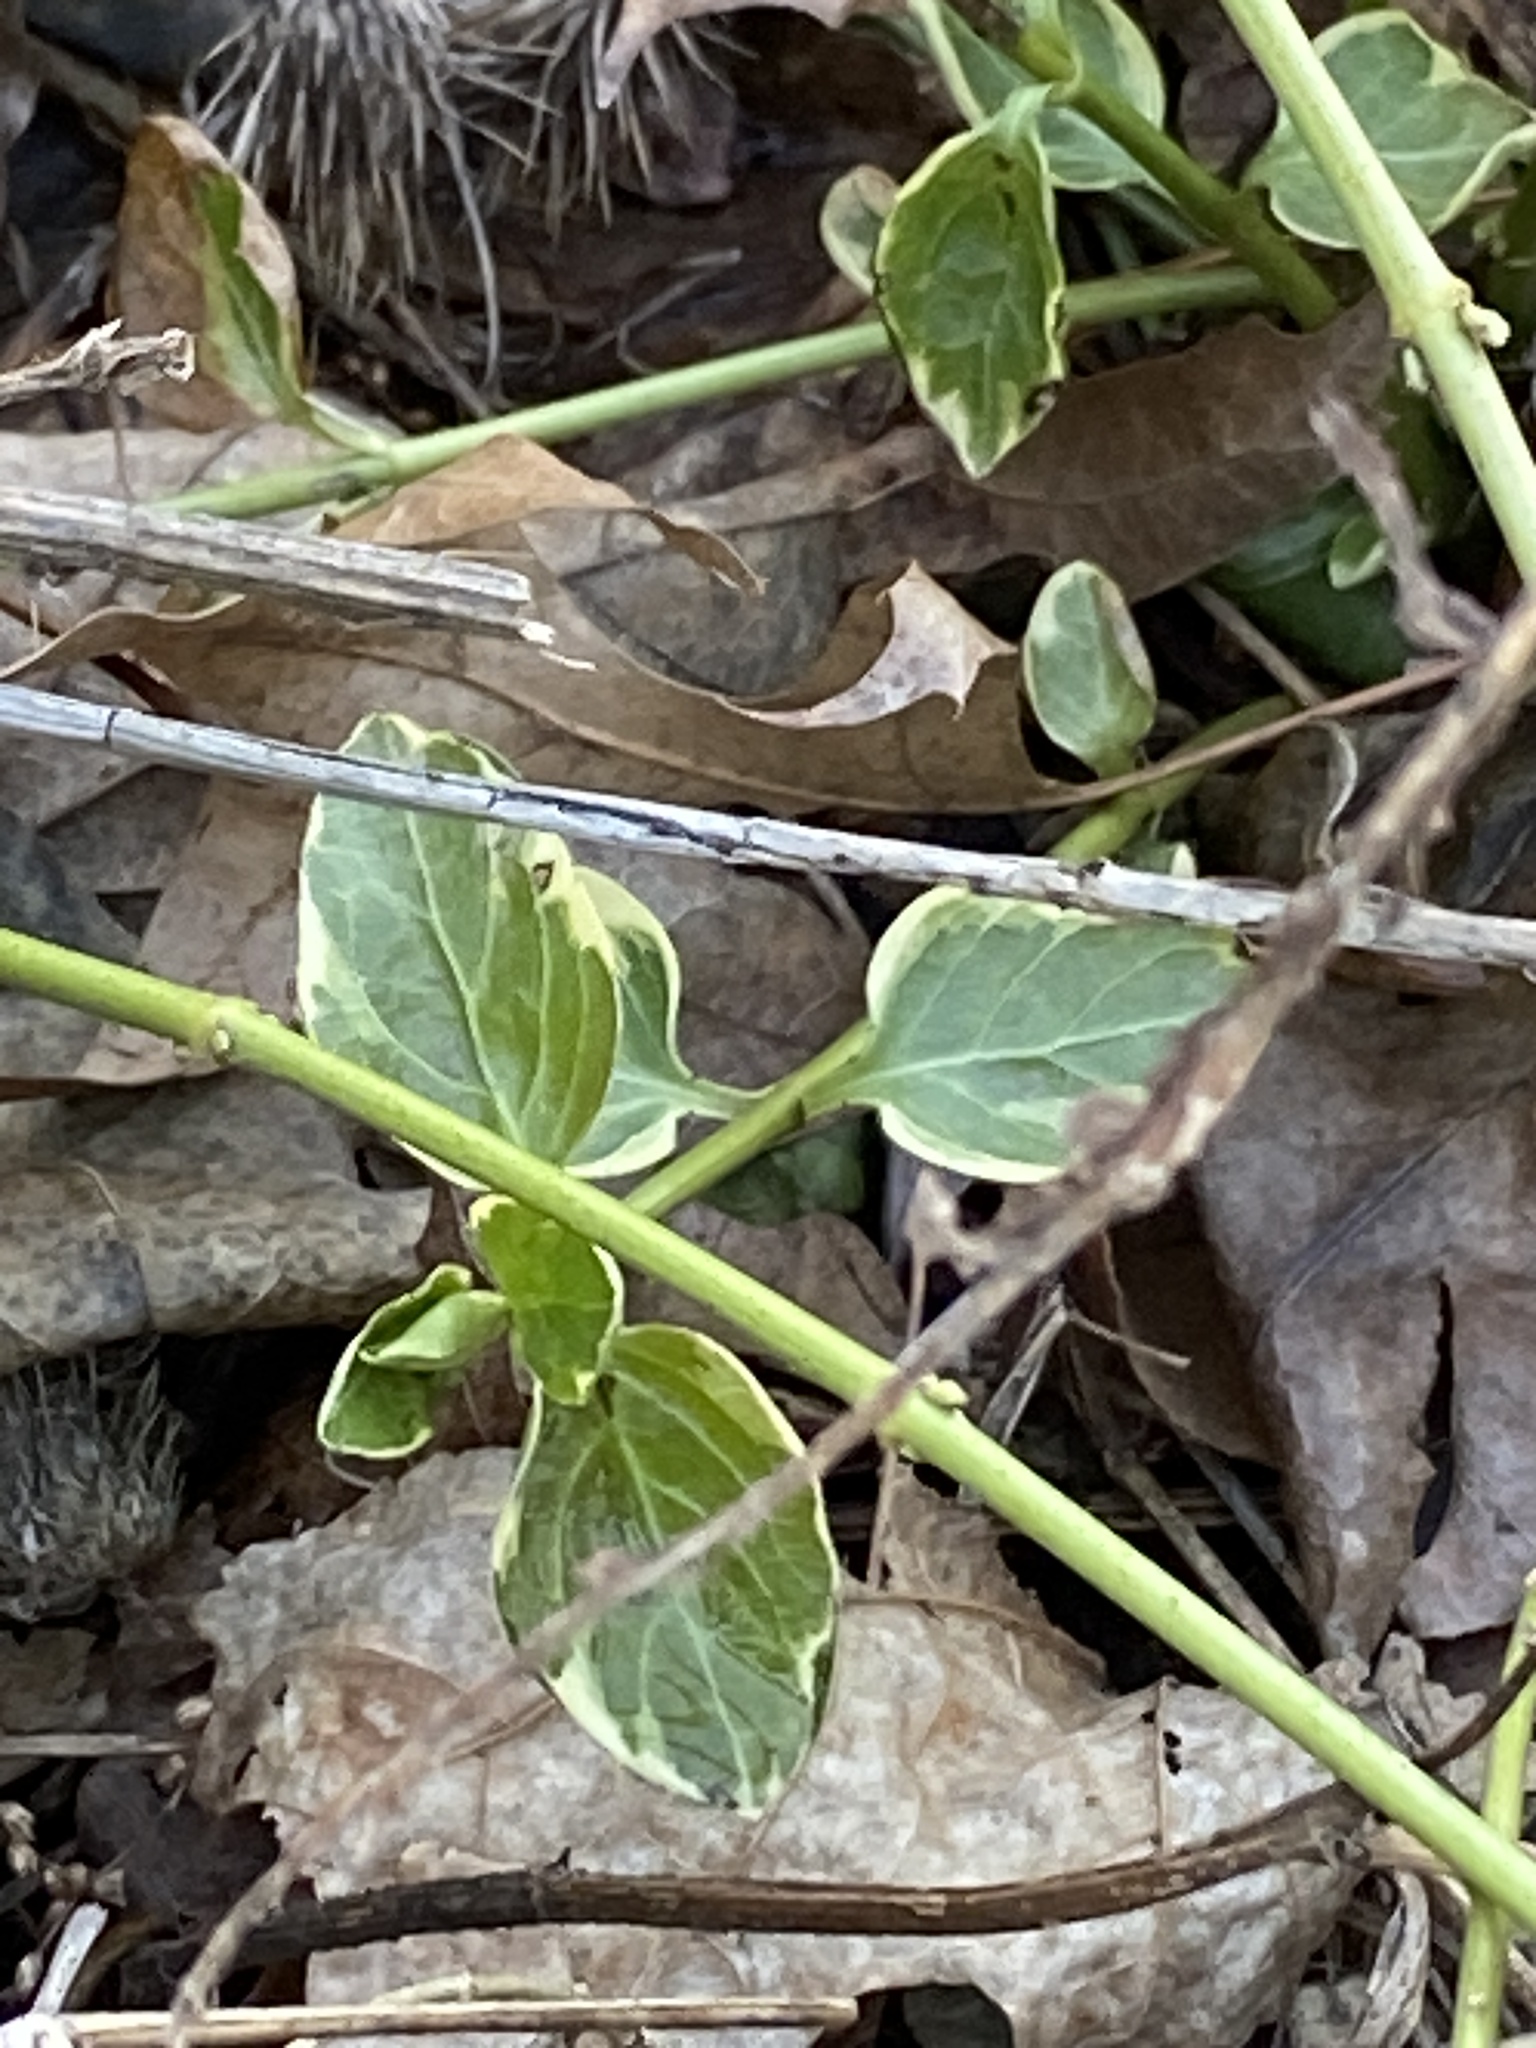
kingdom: Plantae
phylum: Tracheophyta
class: Magnoliopsida
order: Gentianales
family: Apocynaceae
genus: Vinca
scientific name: Vinca major
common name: Greater periwinkle
